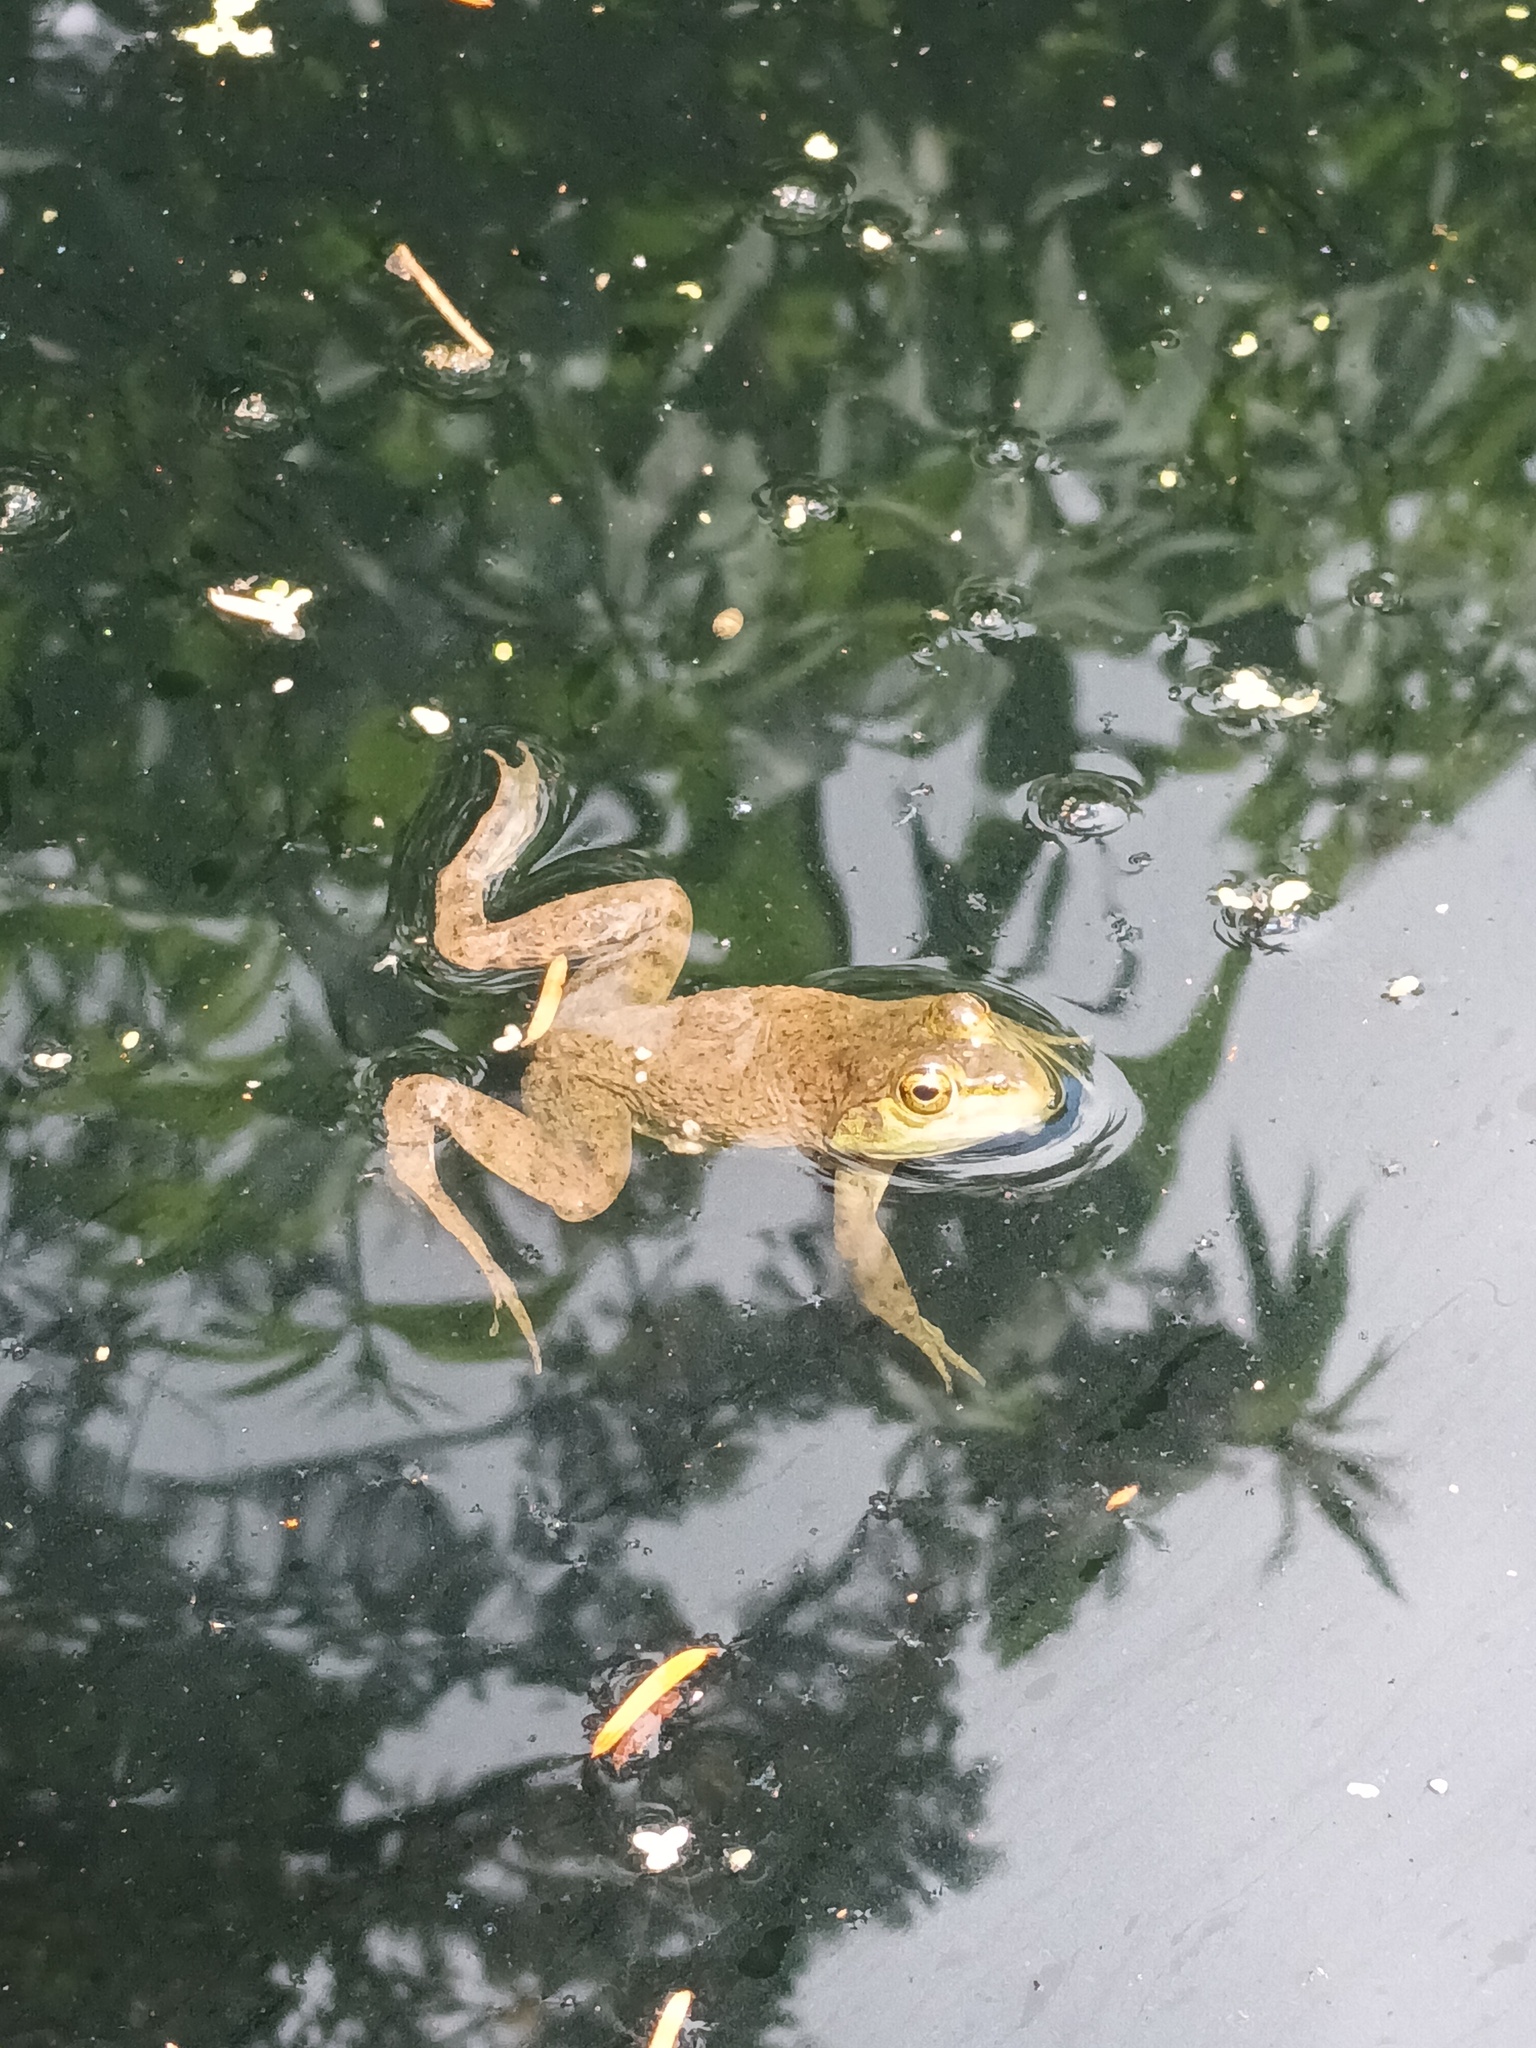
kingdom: Animalia
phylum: Chordata
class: Amphibia
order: Anura
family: Ranidae
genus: Lithobates
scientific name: Lithobates catesbeianus
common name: American bullfrog
